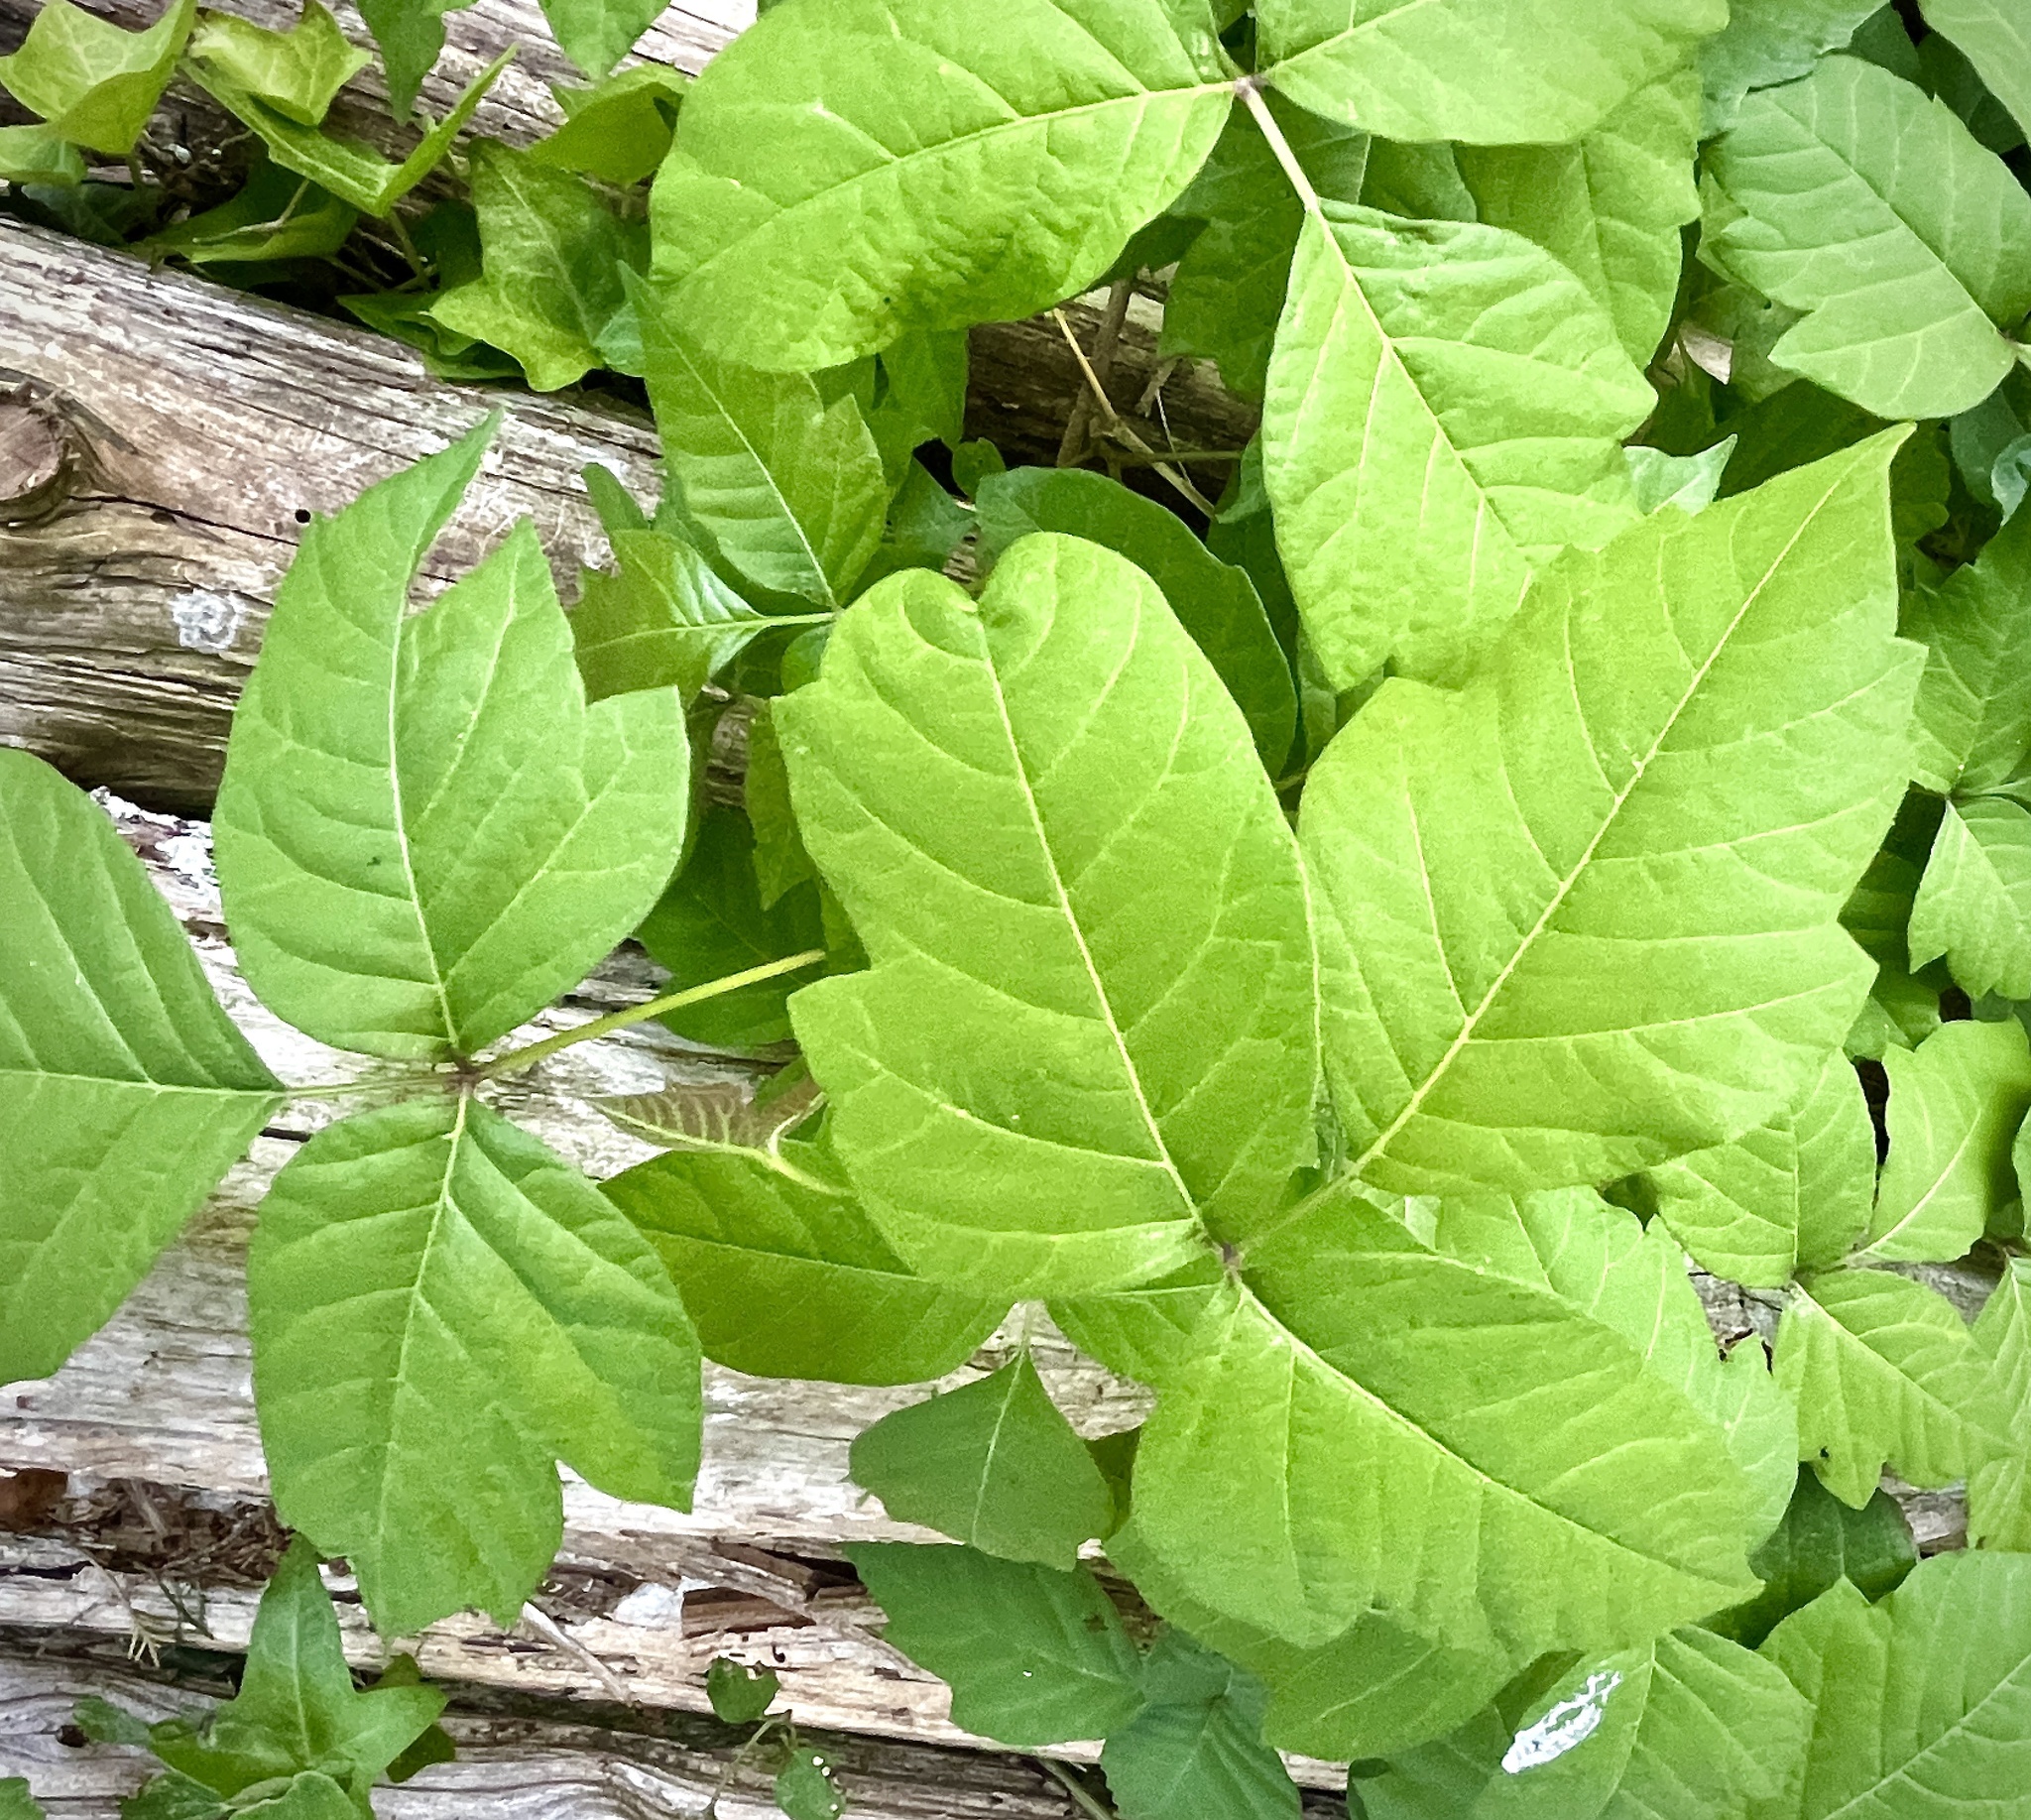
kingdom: Plantae
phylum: Tracheophyta
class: Magnoliopsida
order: Sapindales
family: Anacardiaceae
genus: Toxicodendron
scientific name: Toxicodendron radicans
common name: Poison ivy
